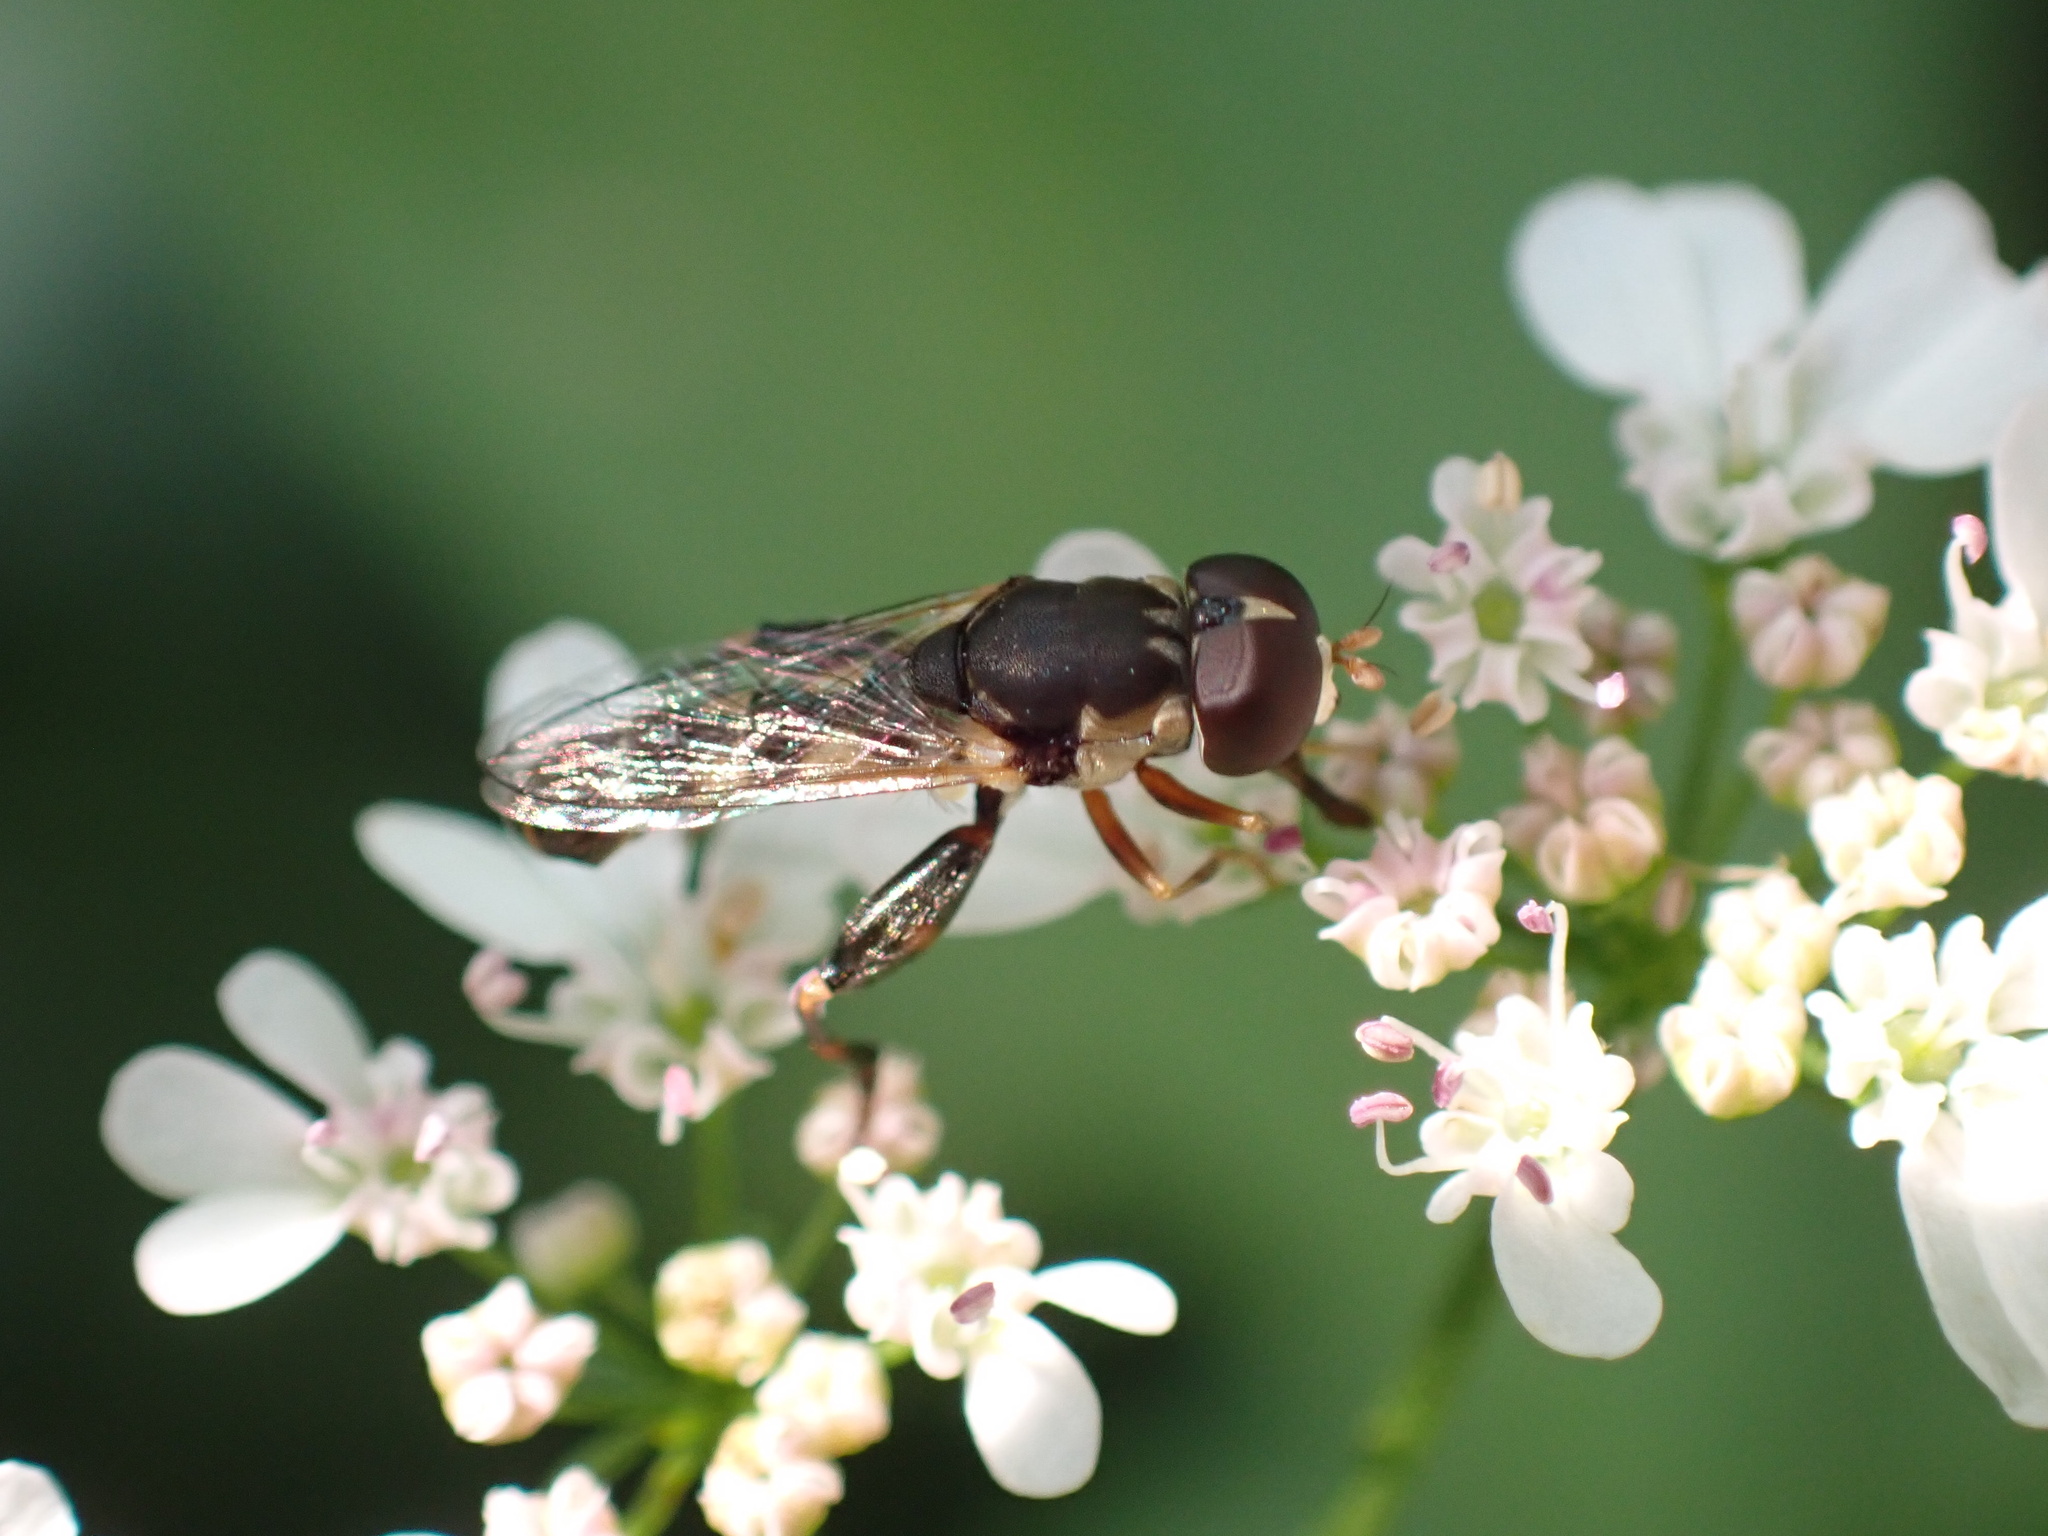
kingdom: Animalia
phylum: Arthropoda
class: Insecta
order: Diptera
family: Syrphidae
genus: Syritta
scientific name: Syritta pipiens
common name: Hover fly
